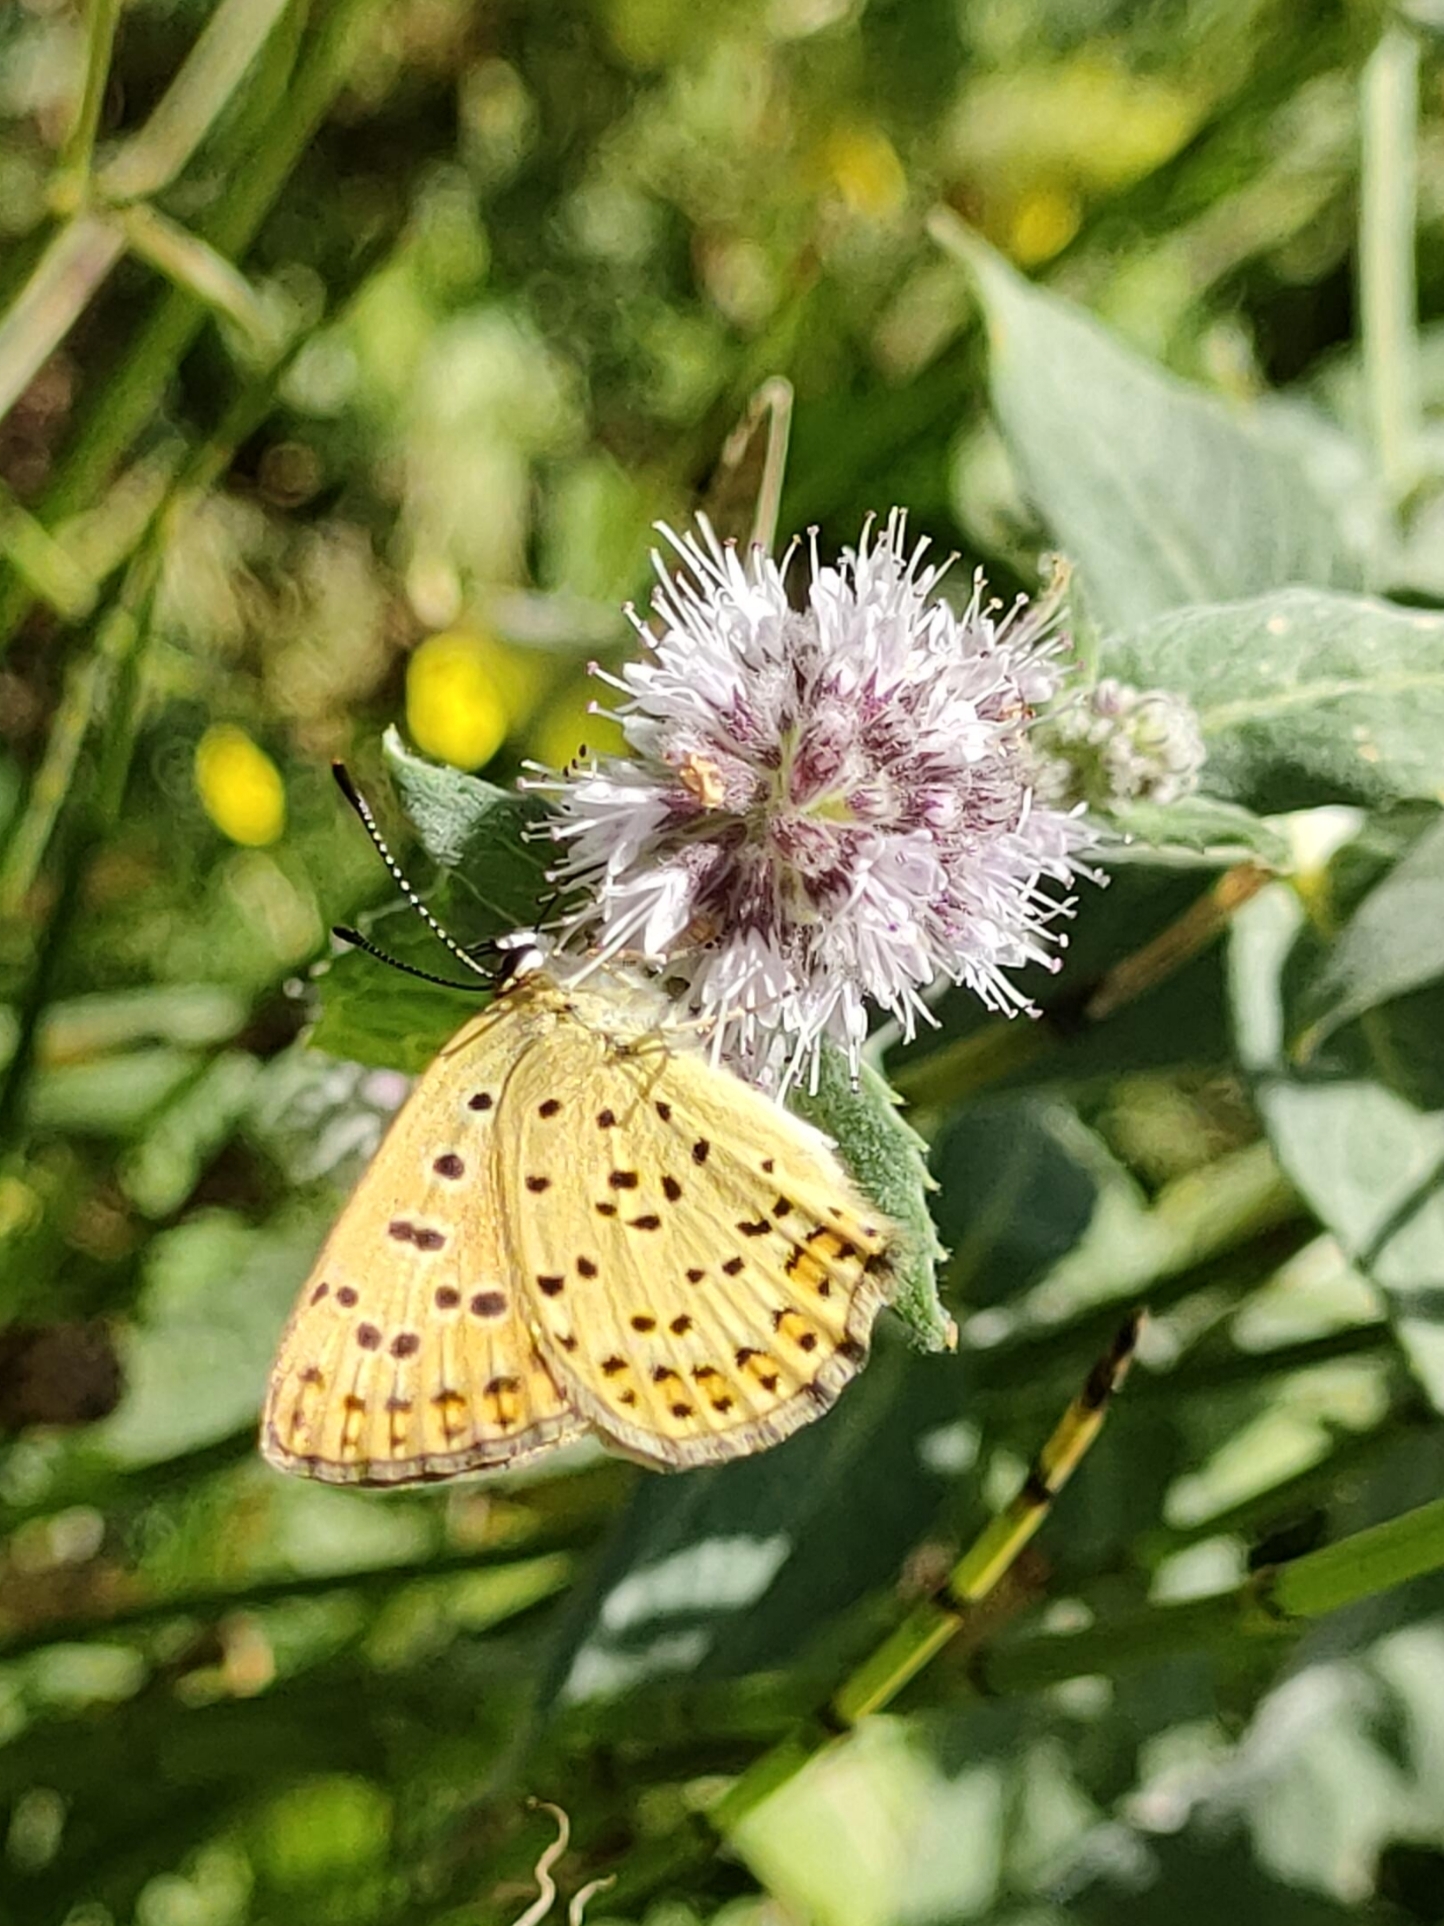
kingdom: Animalia
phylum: Arthropoda
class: Insecta
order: Lepidoptera
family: Lycaenidae
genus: Loweia
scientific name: Loweia tityrus
